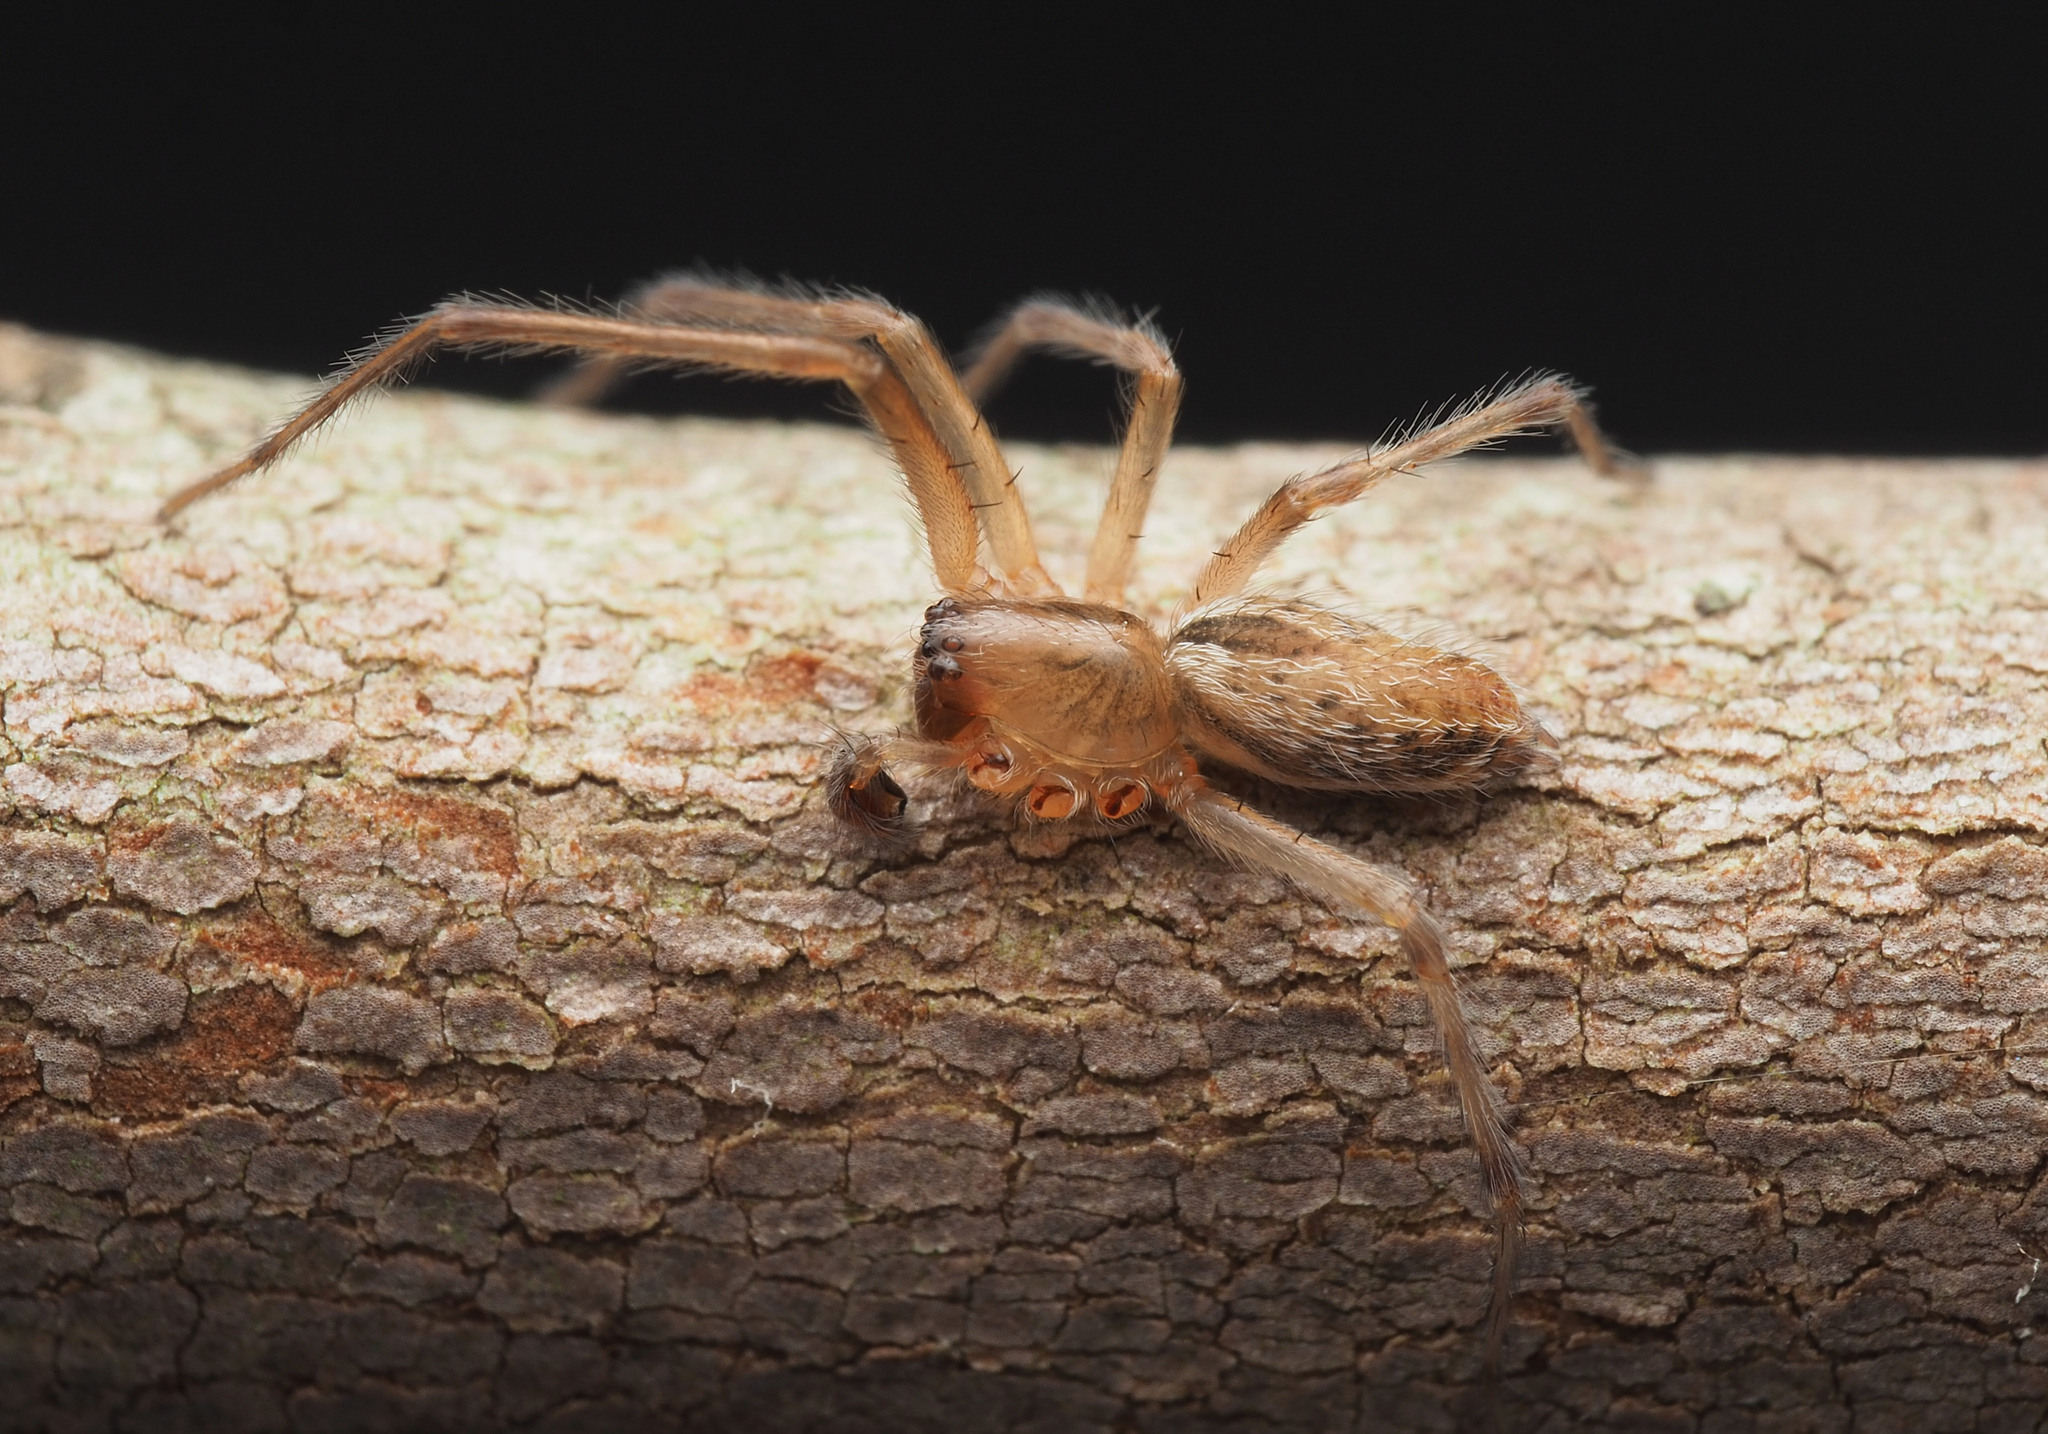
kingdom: Animalia
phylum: Arthropoda
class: Arachnida
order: Araneae
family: Desidae
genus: Badumna
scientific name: Badumna
